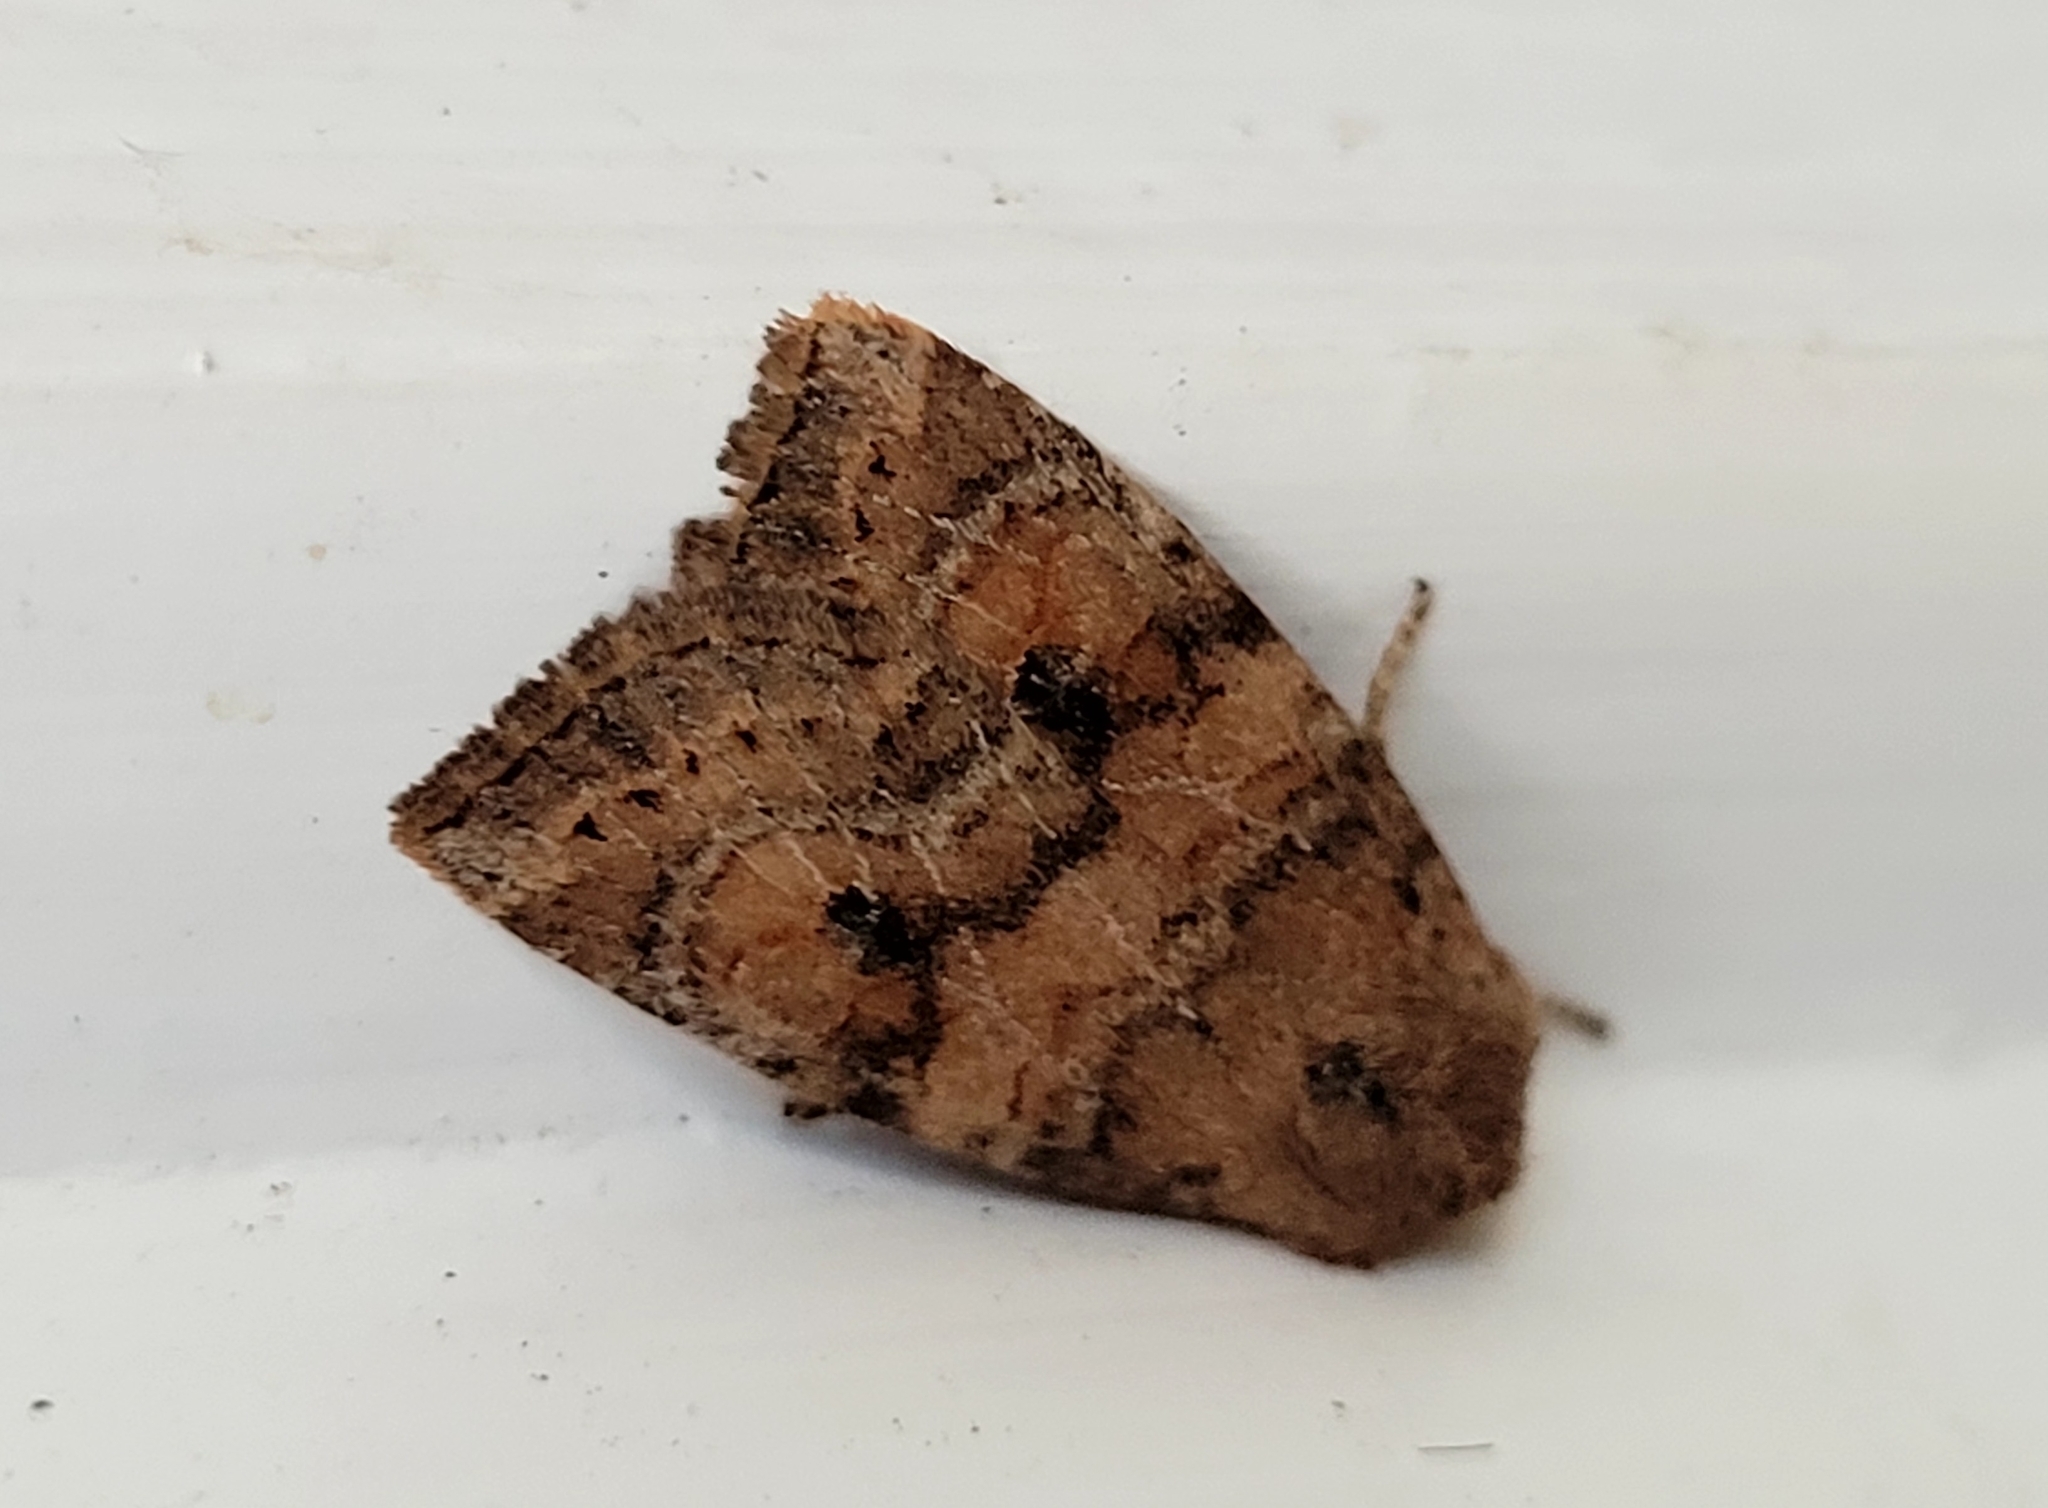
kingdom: Animalia
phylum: Arthropoda
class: Insecta
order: Lepidoptera
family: Noctuidae
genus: Anathix
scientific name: Anathix puta
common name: Puta sallow
